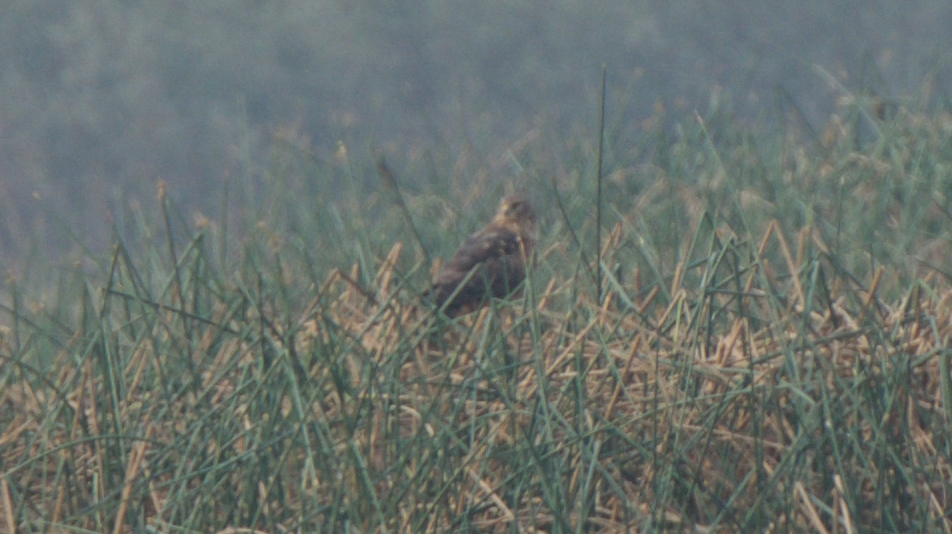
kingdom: Animalia
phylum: Chordata
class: Aves
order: Accipitriformes
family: Accipitridae
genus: Circus
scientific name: Circus cyaneus
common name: Hen harrier
